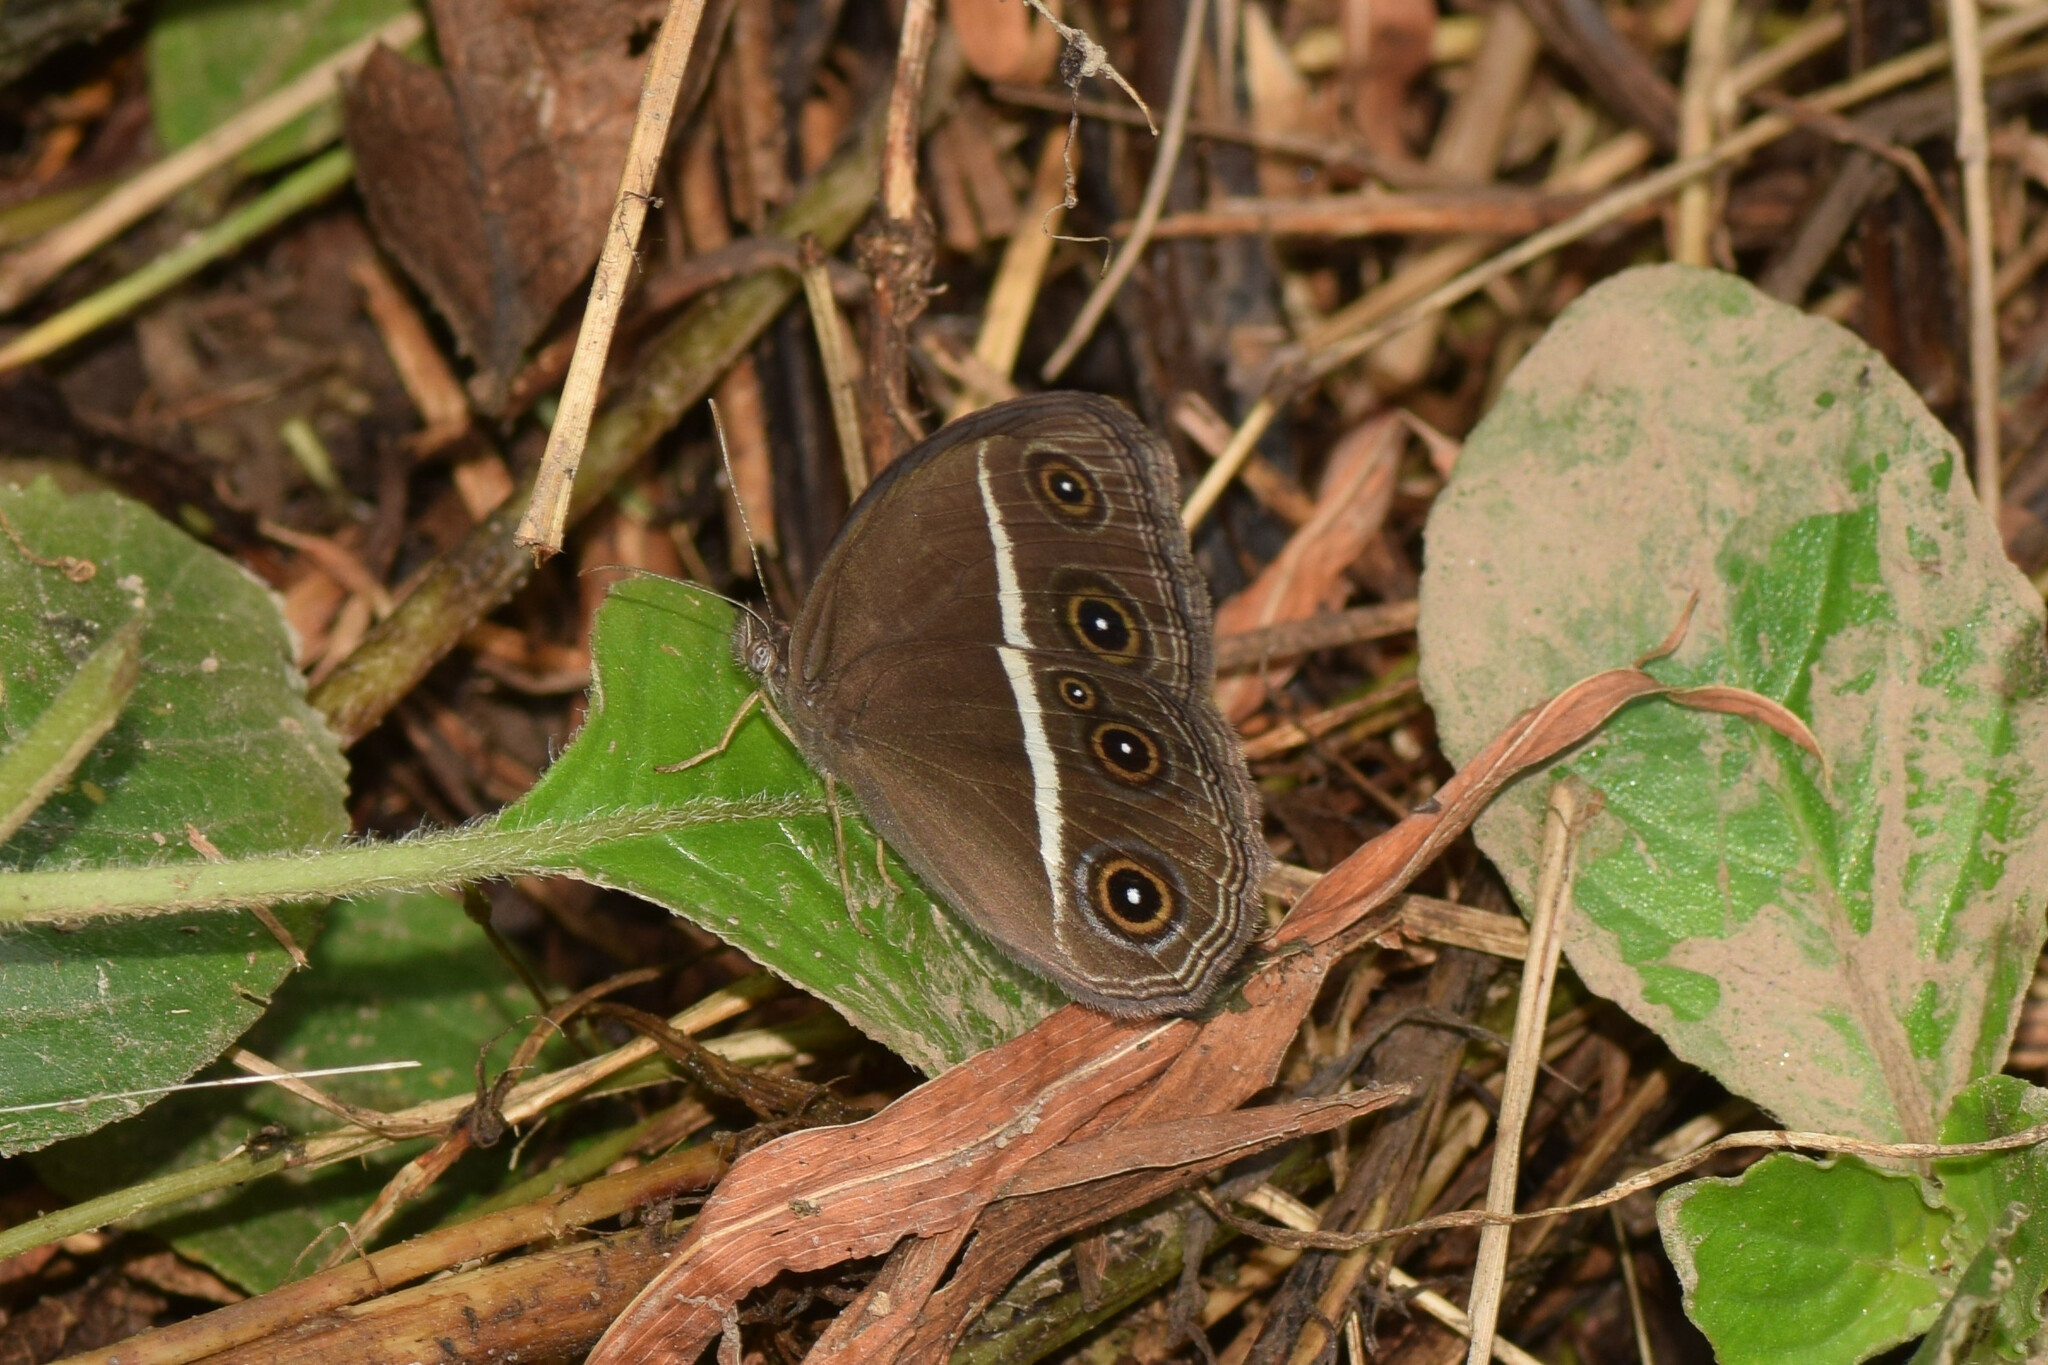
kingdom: Animalia
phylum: Arthropoda
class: Insecta
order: Lepidoptera
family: Nymphalidae
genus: Orsotriaena
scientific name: Orsotriaena medus
